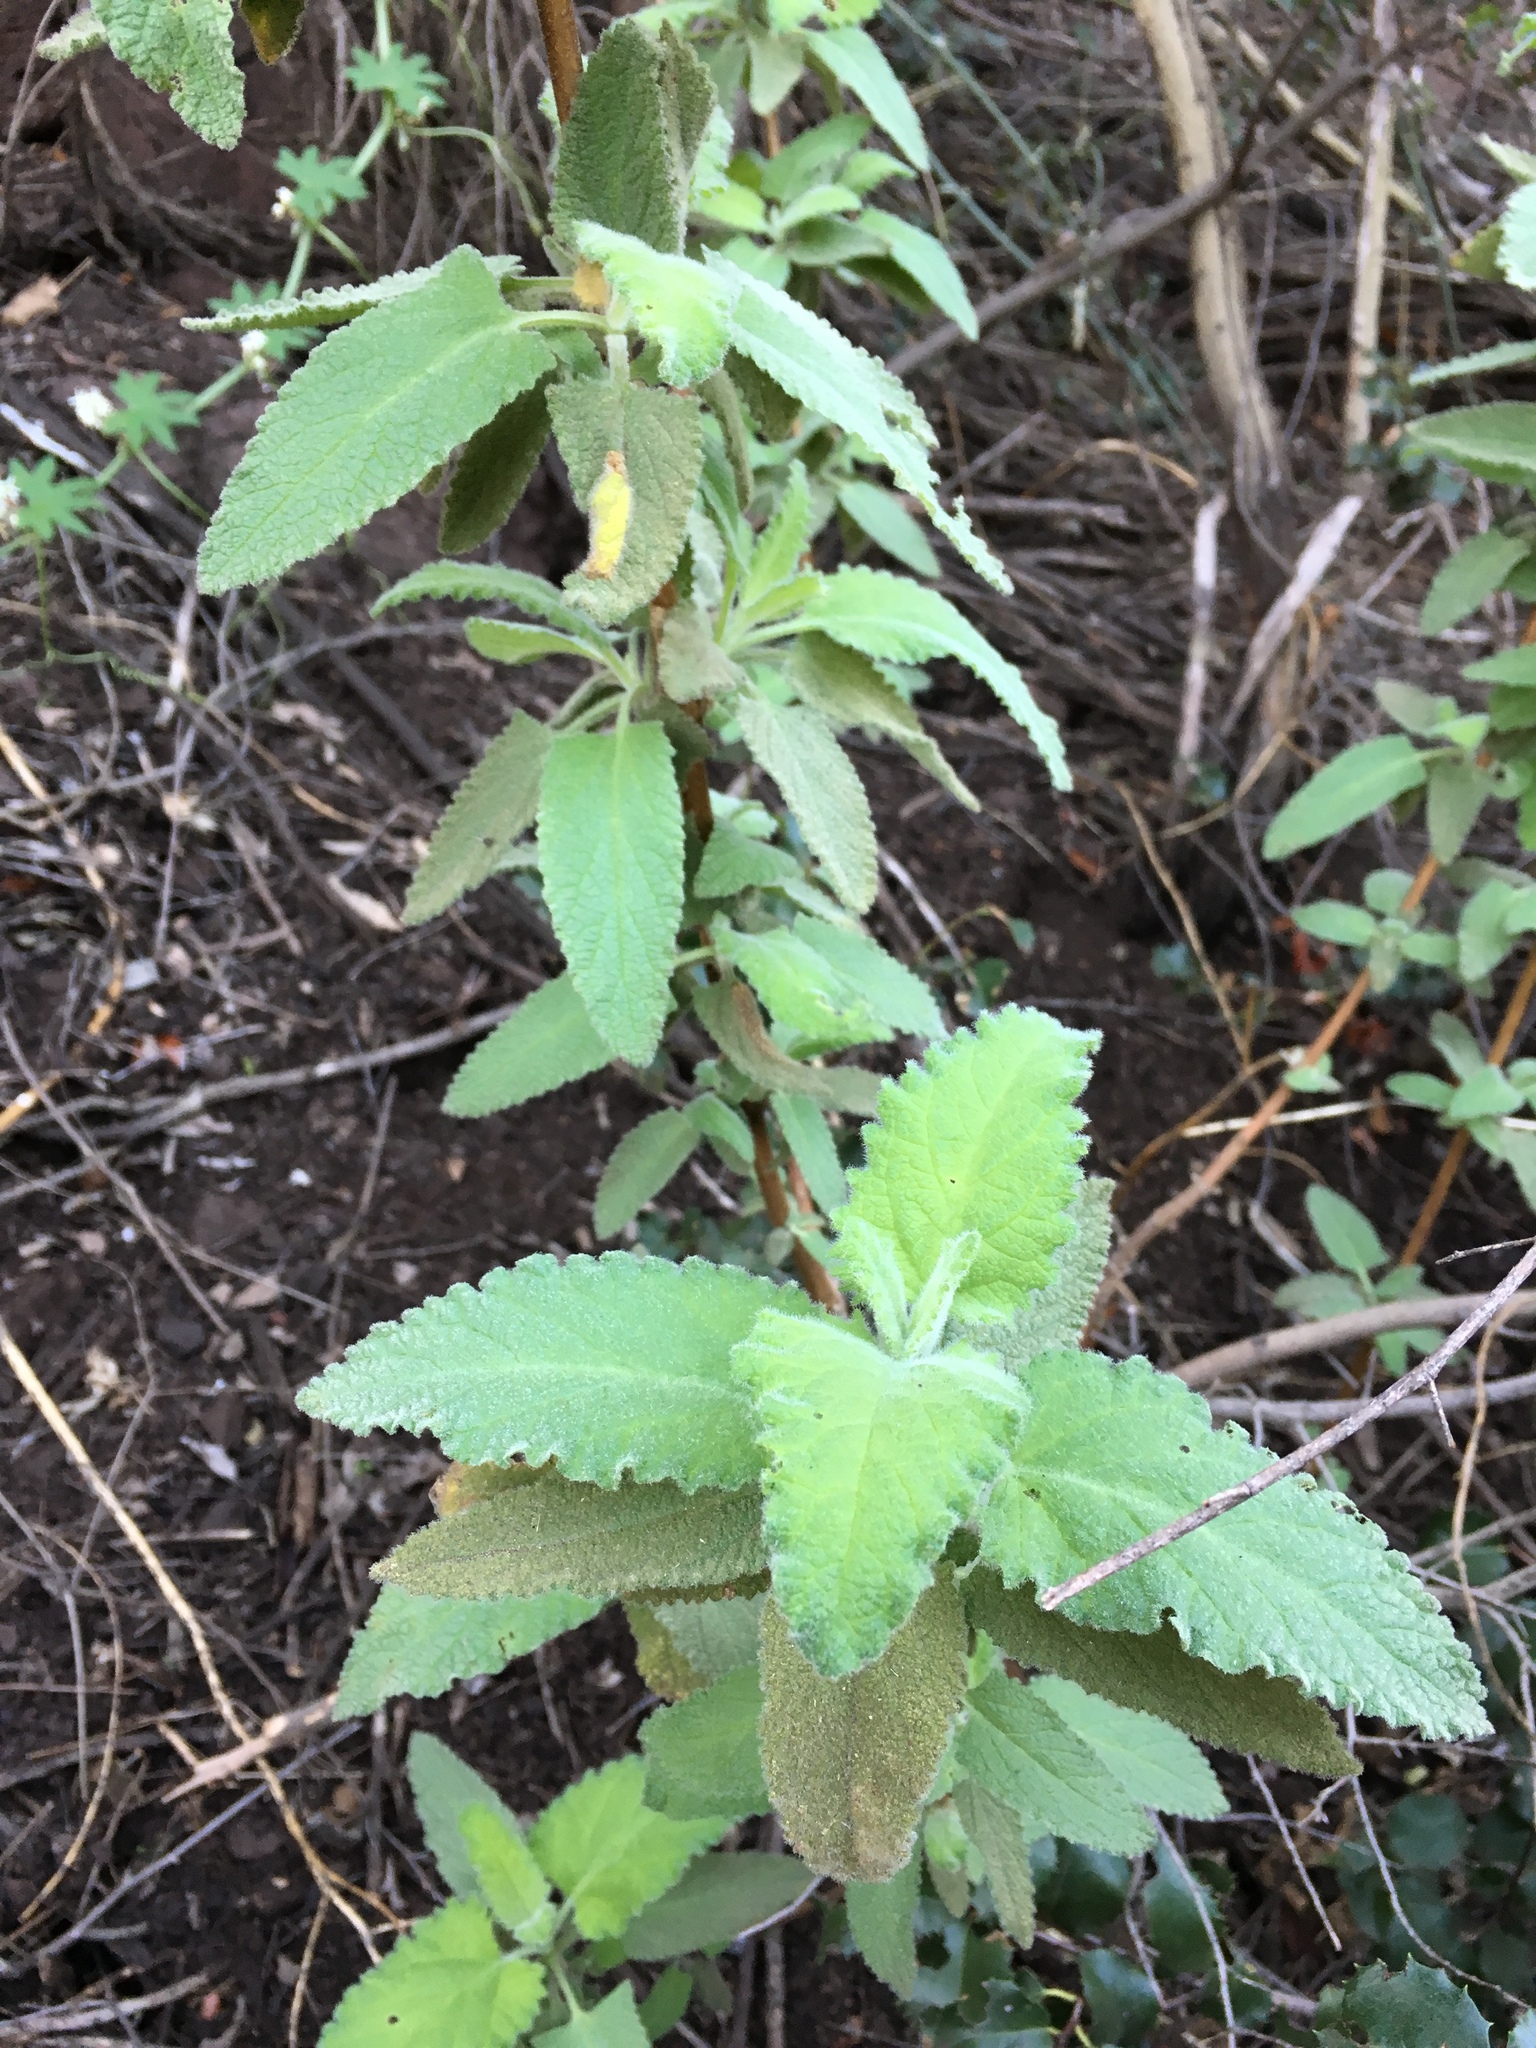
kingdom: Plantae
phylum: Tracheophyta
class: Magnoliopsida
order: Lamiales
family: Lamiaceae
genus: Lepechinia
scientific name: Lepechinia fragrans
